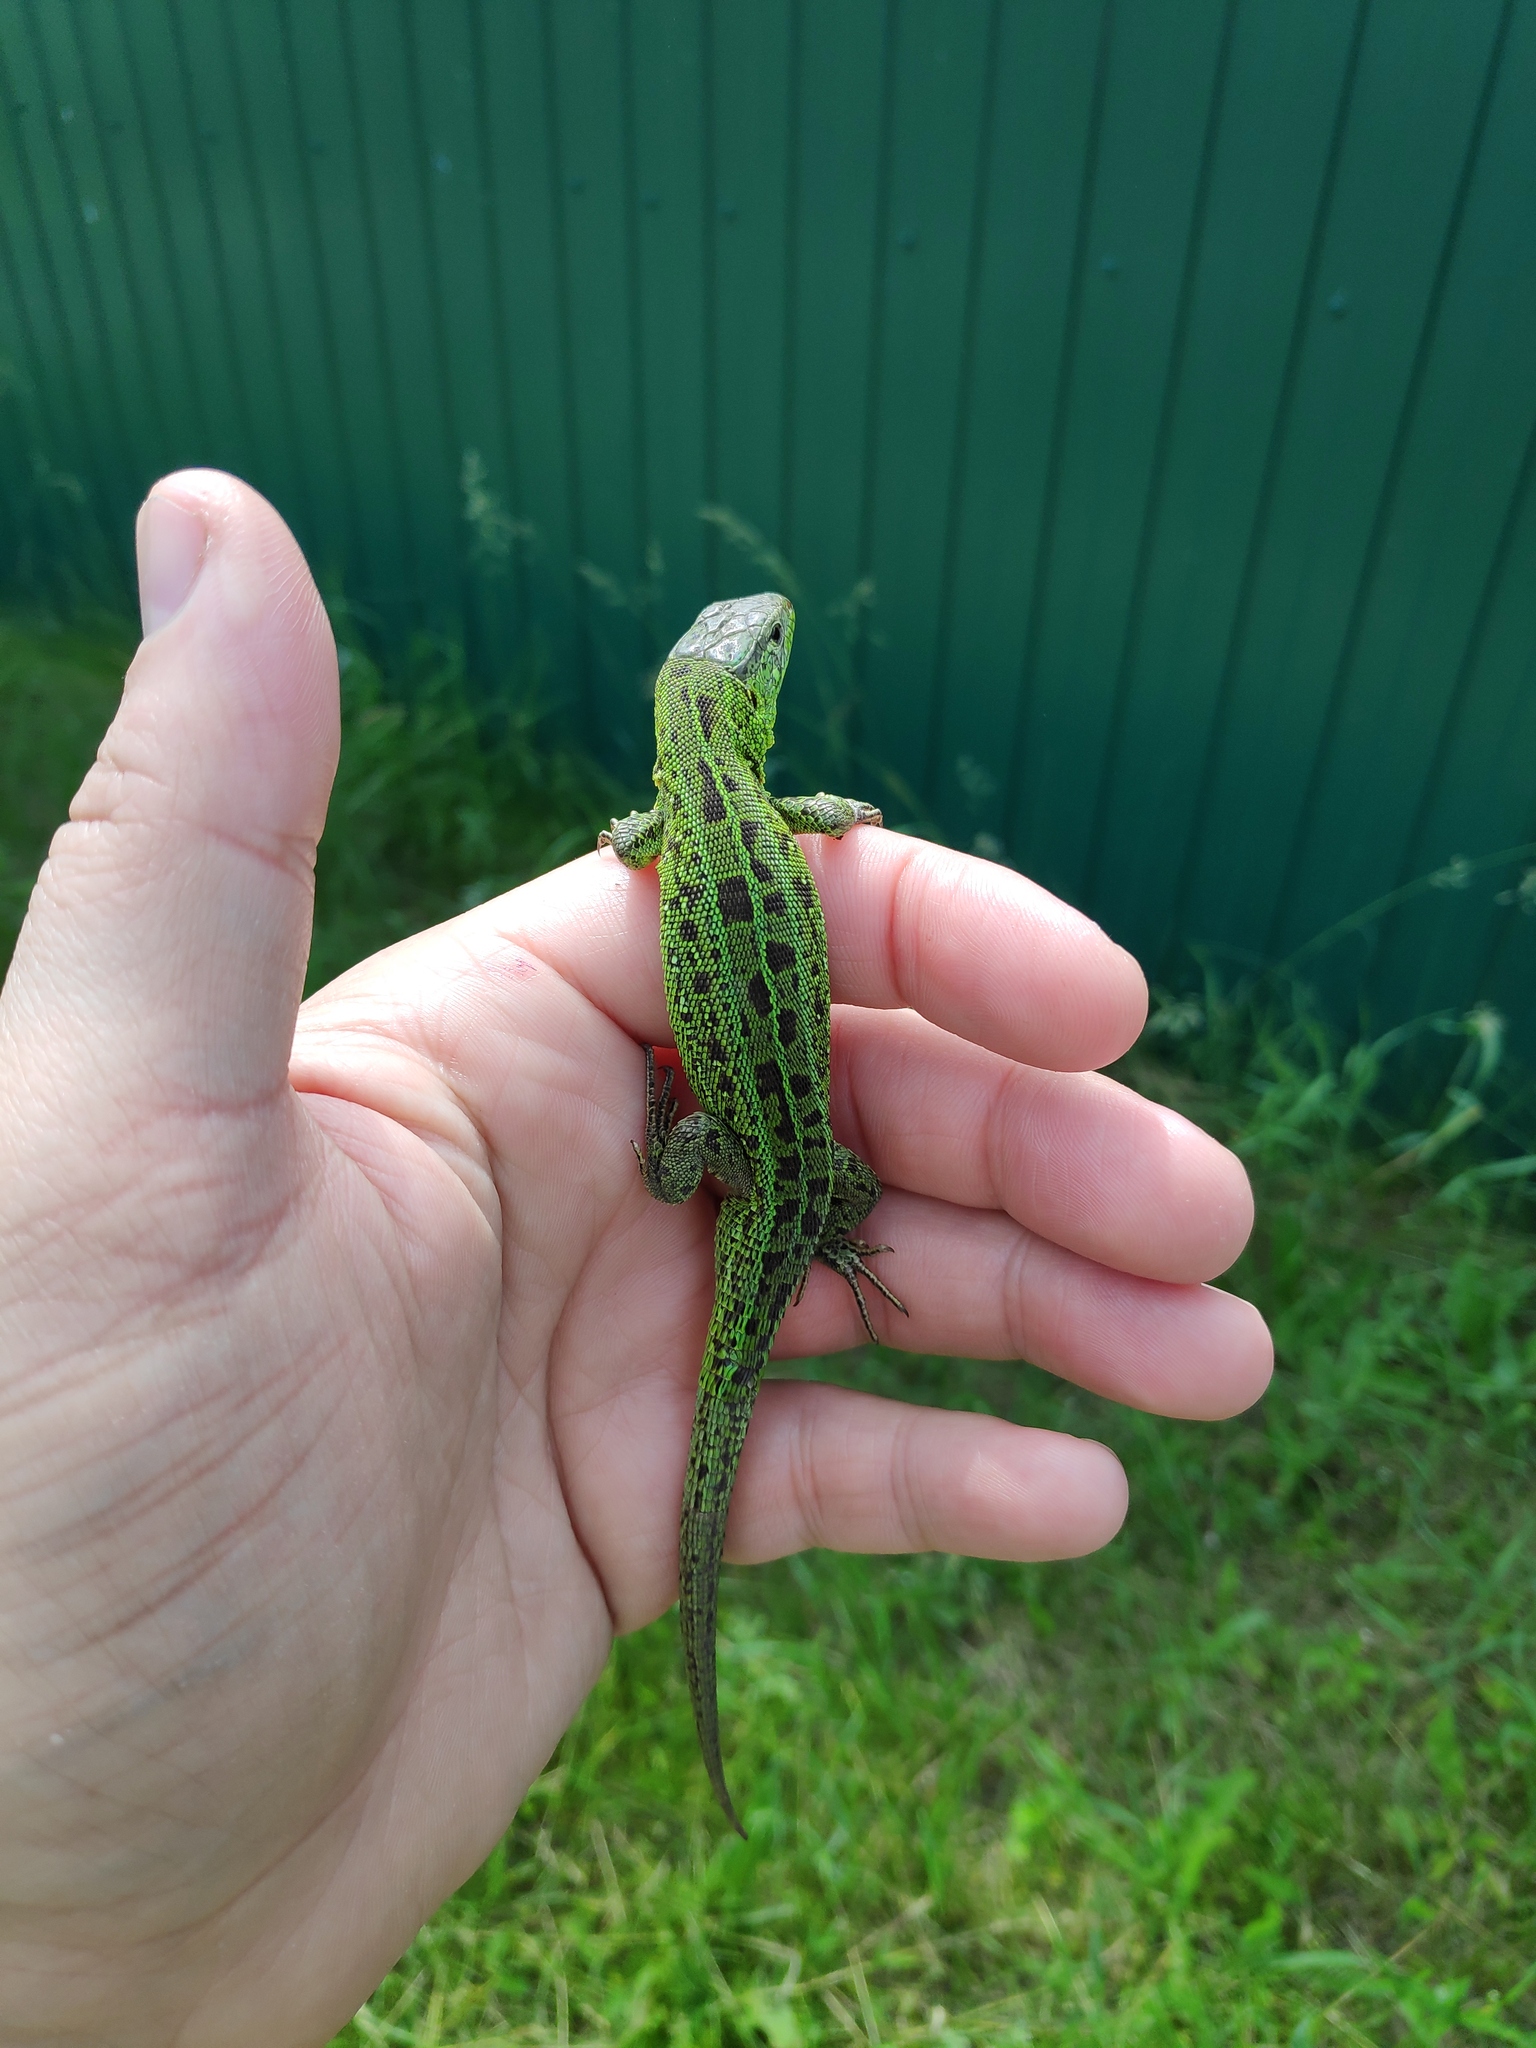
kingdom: Animalia
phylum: Chordata
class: Squamata
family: Lacertidae
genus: Lacerta
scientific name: Lacerta agilis
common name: Sand lizard
